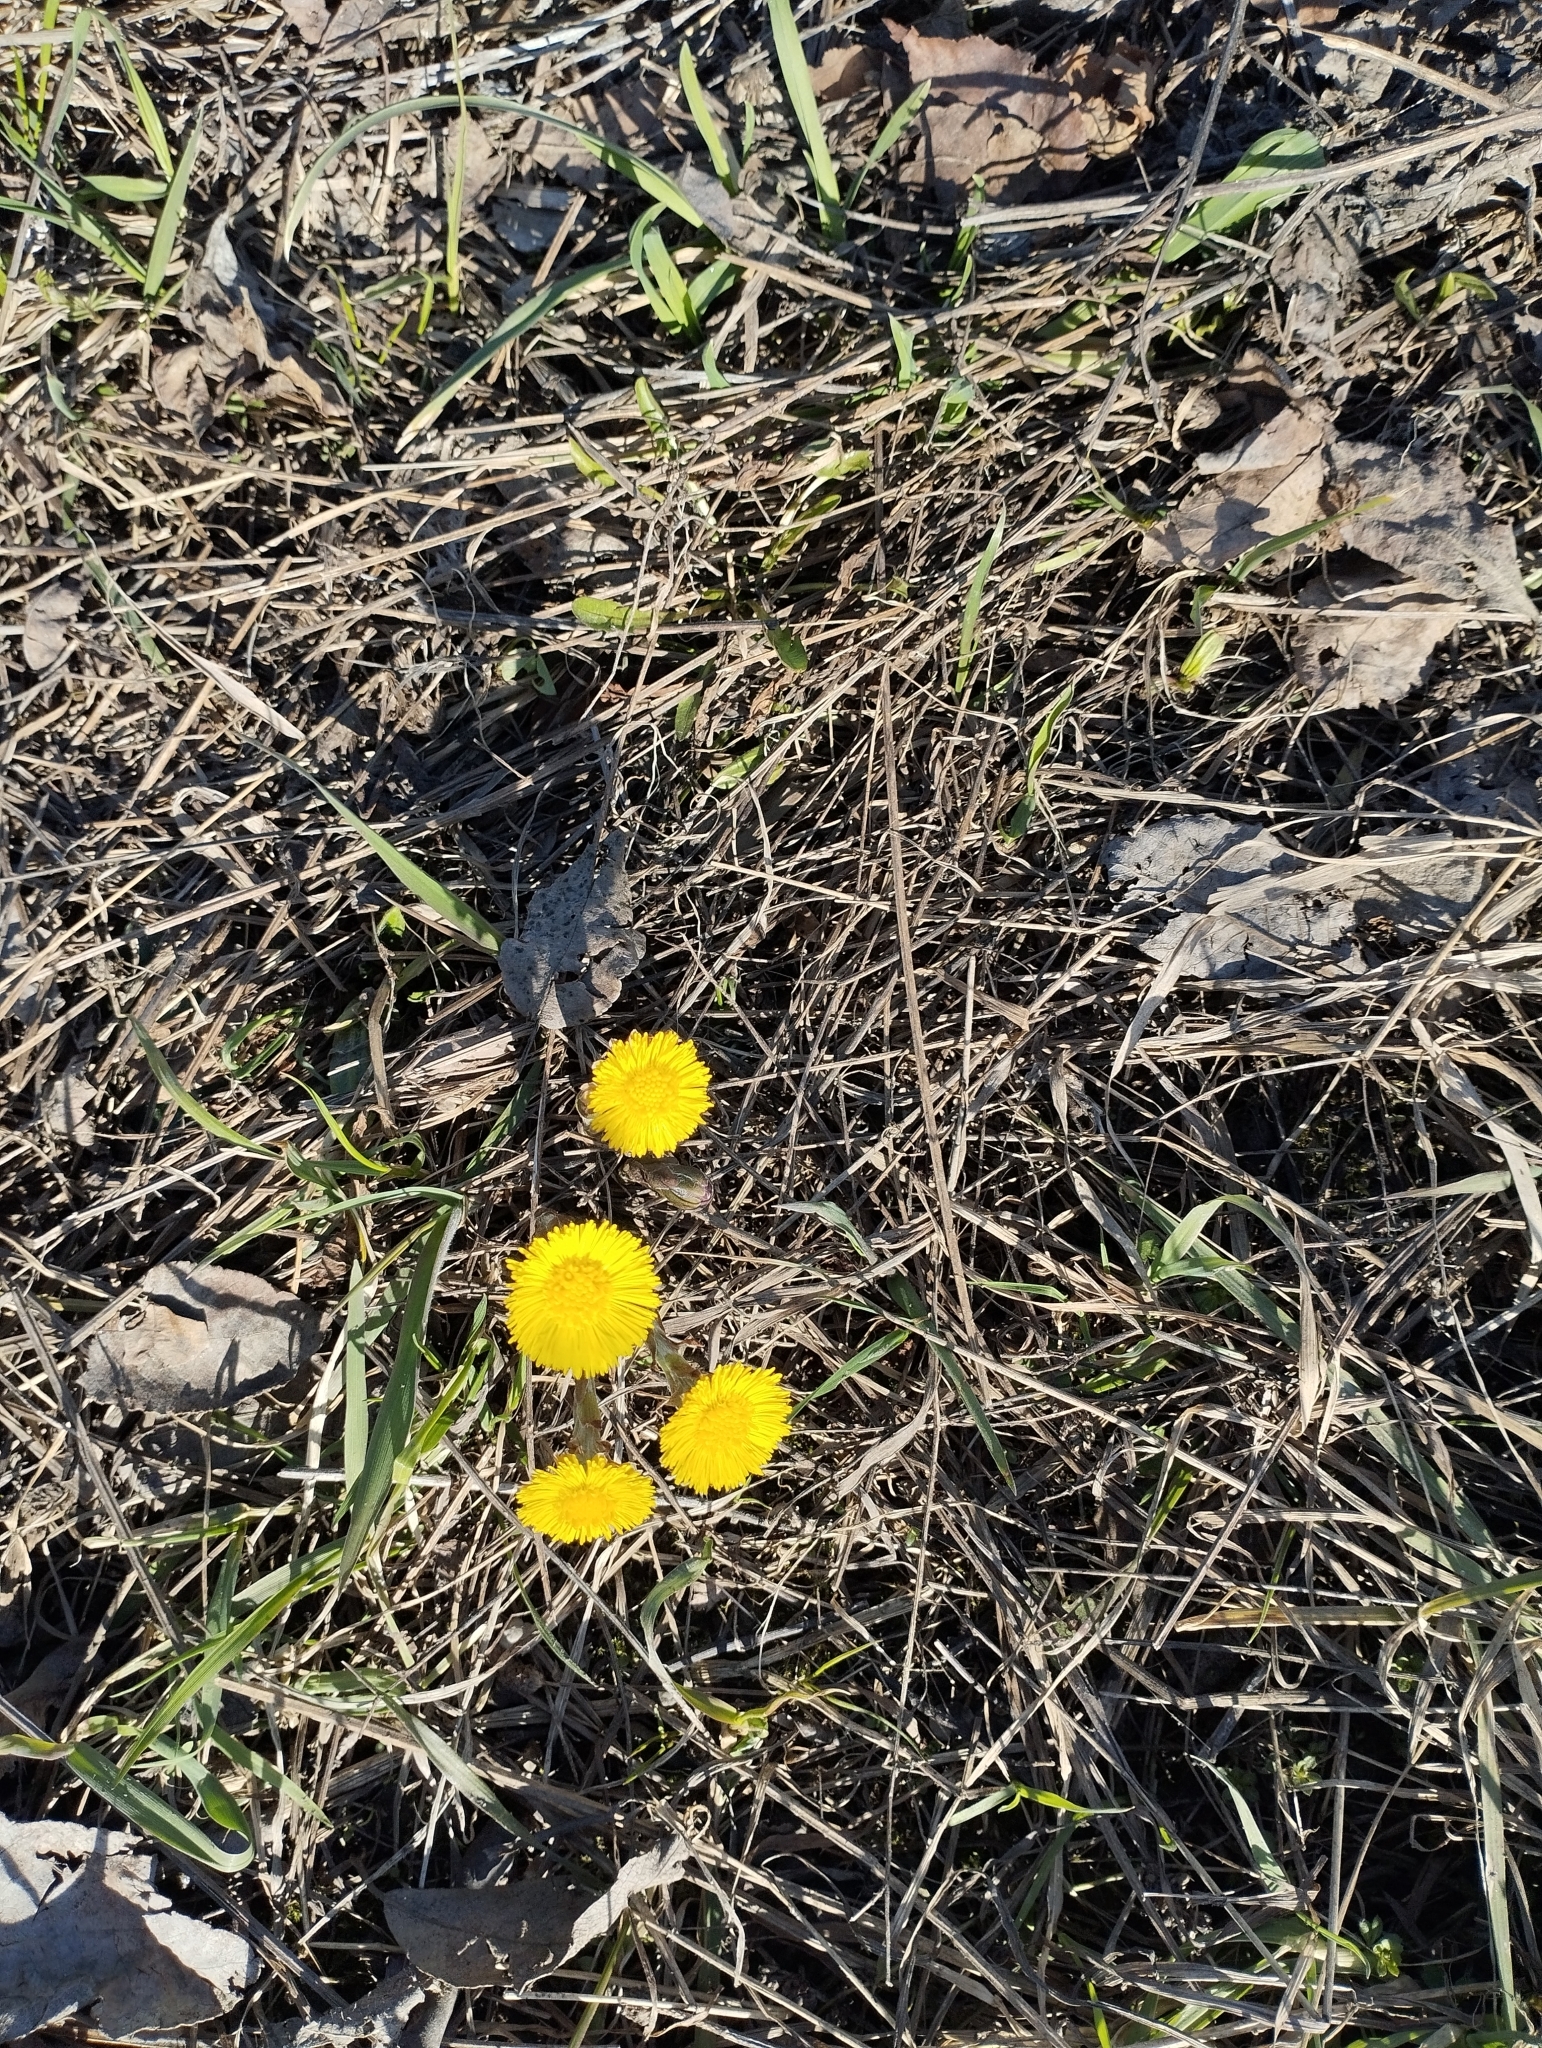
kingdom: Plantae
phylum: Tracheophyta
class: Magnoliopsida
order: Asterales
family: Asteraceae
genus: Tussilago
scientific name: Tussilago farfara
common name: Coltsfoot
